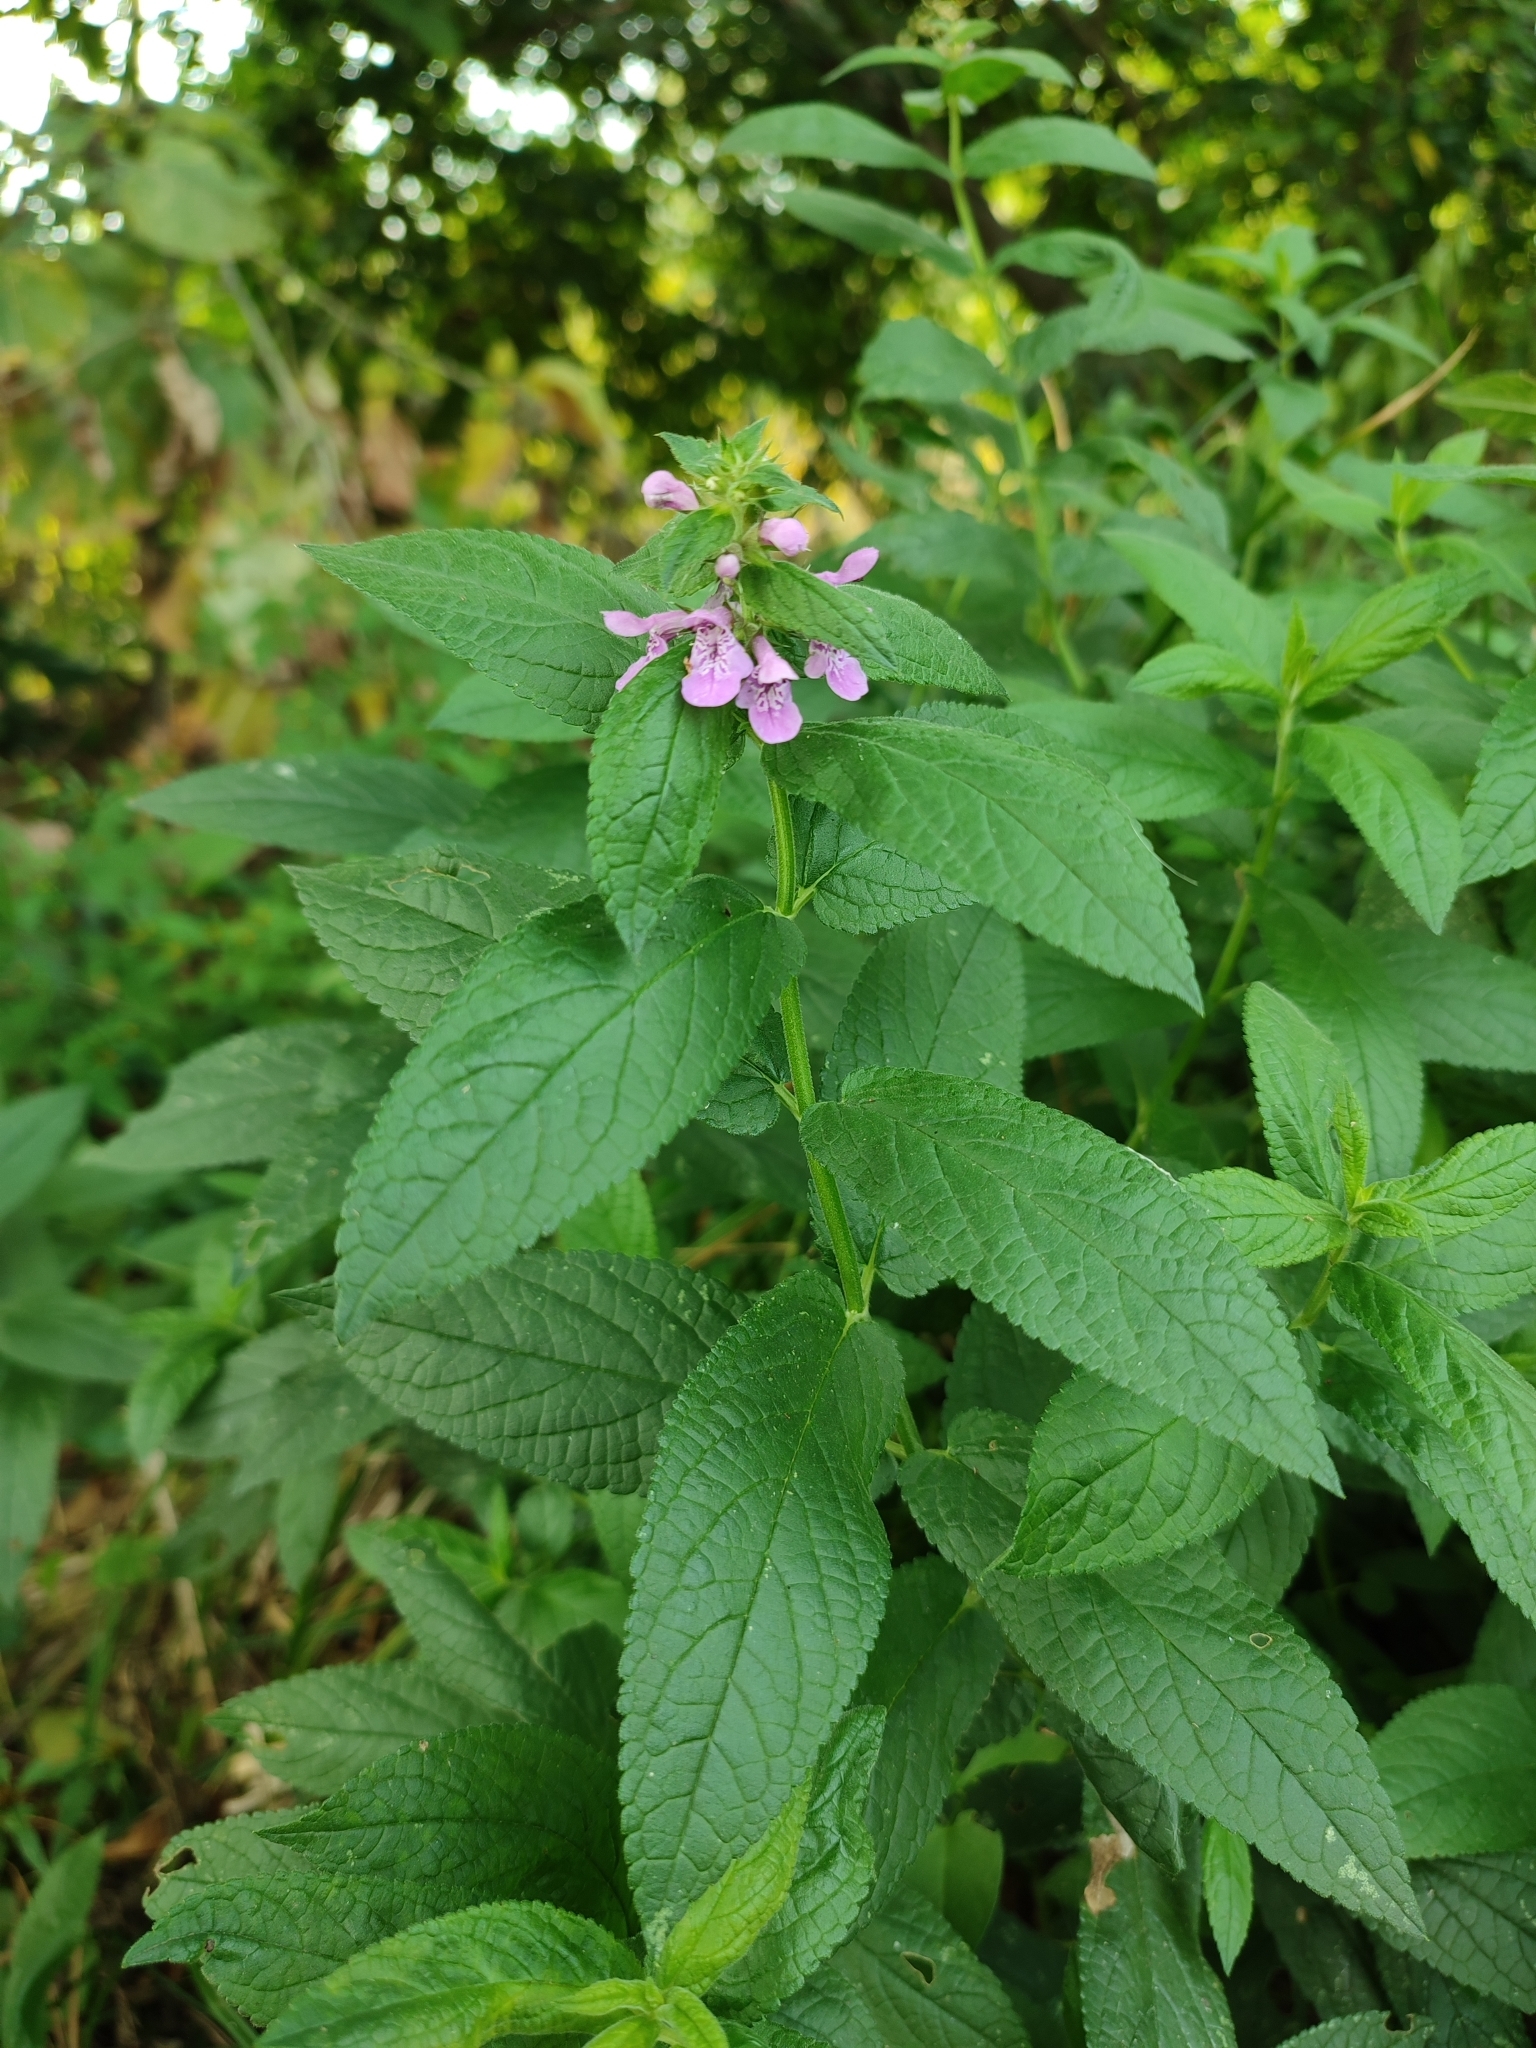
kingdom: Plantae
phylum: Tracheophyta
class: Magnoliopsida
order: Lamiales
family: Lamiaceae
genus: Stachys
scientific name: Stachys palustris
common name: Marsh woundwort
